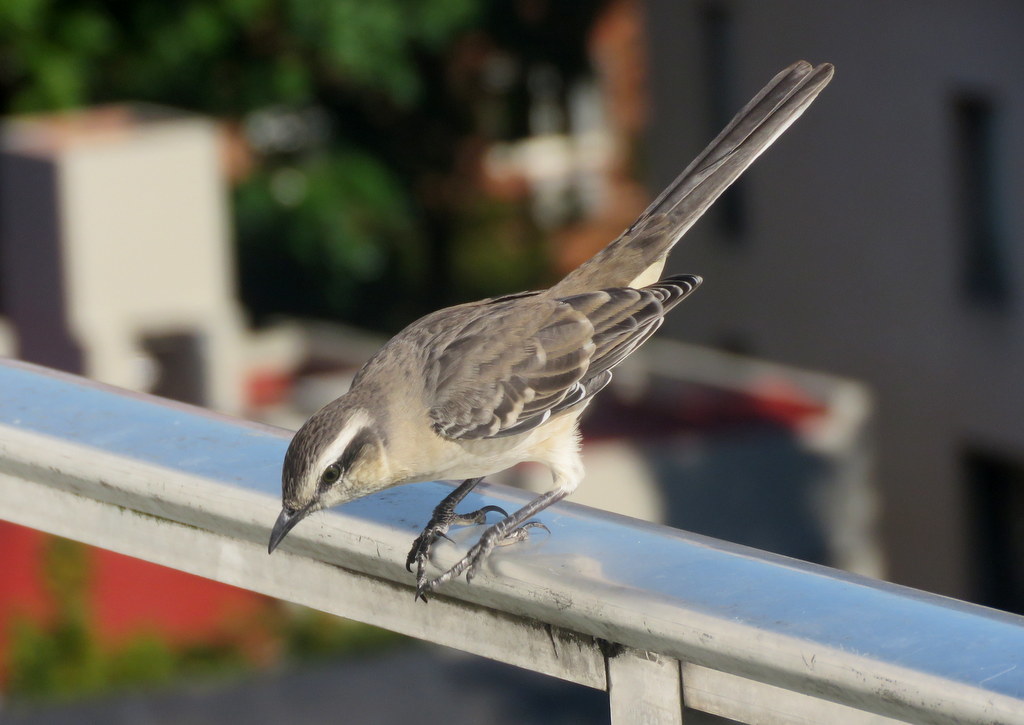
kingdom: Animalia
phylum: Chordata
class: Aves
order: Passeriformes
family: Mimidae
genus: Mimus
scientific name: Mimus saturninus
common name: Chalk-browed mockingbird
